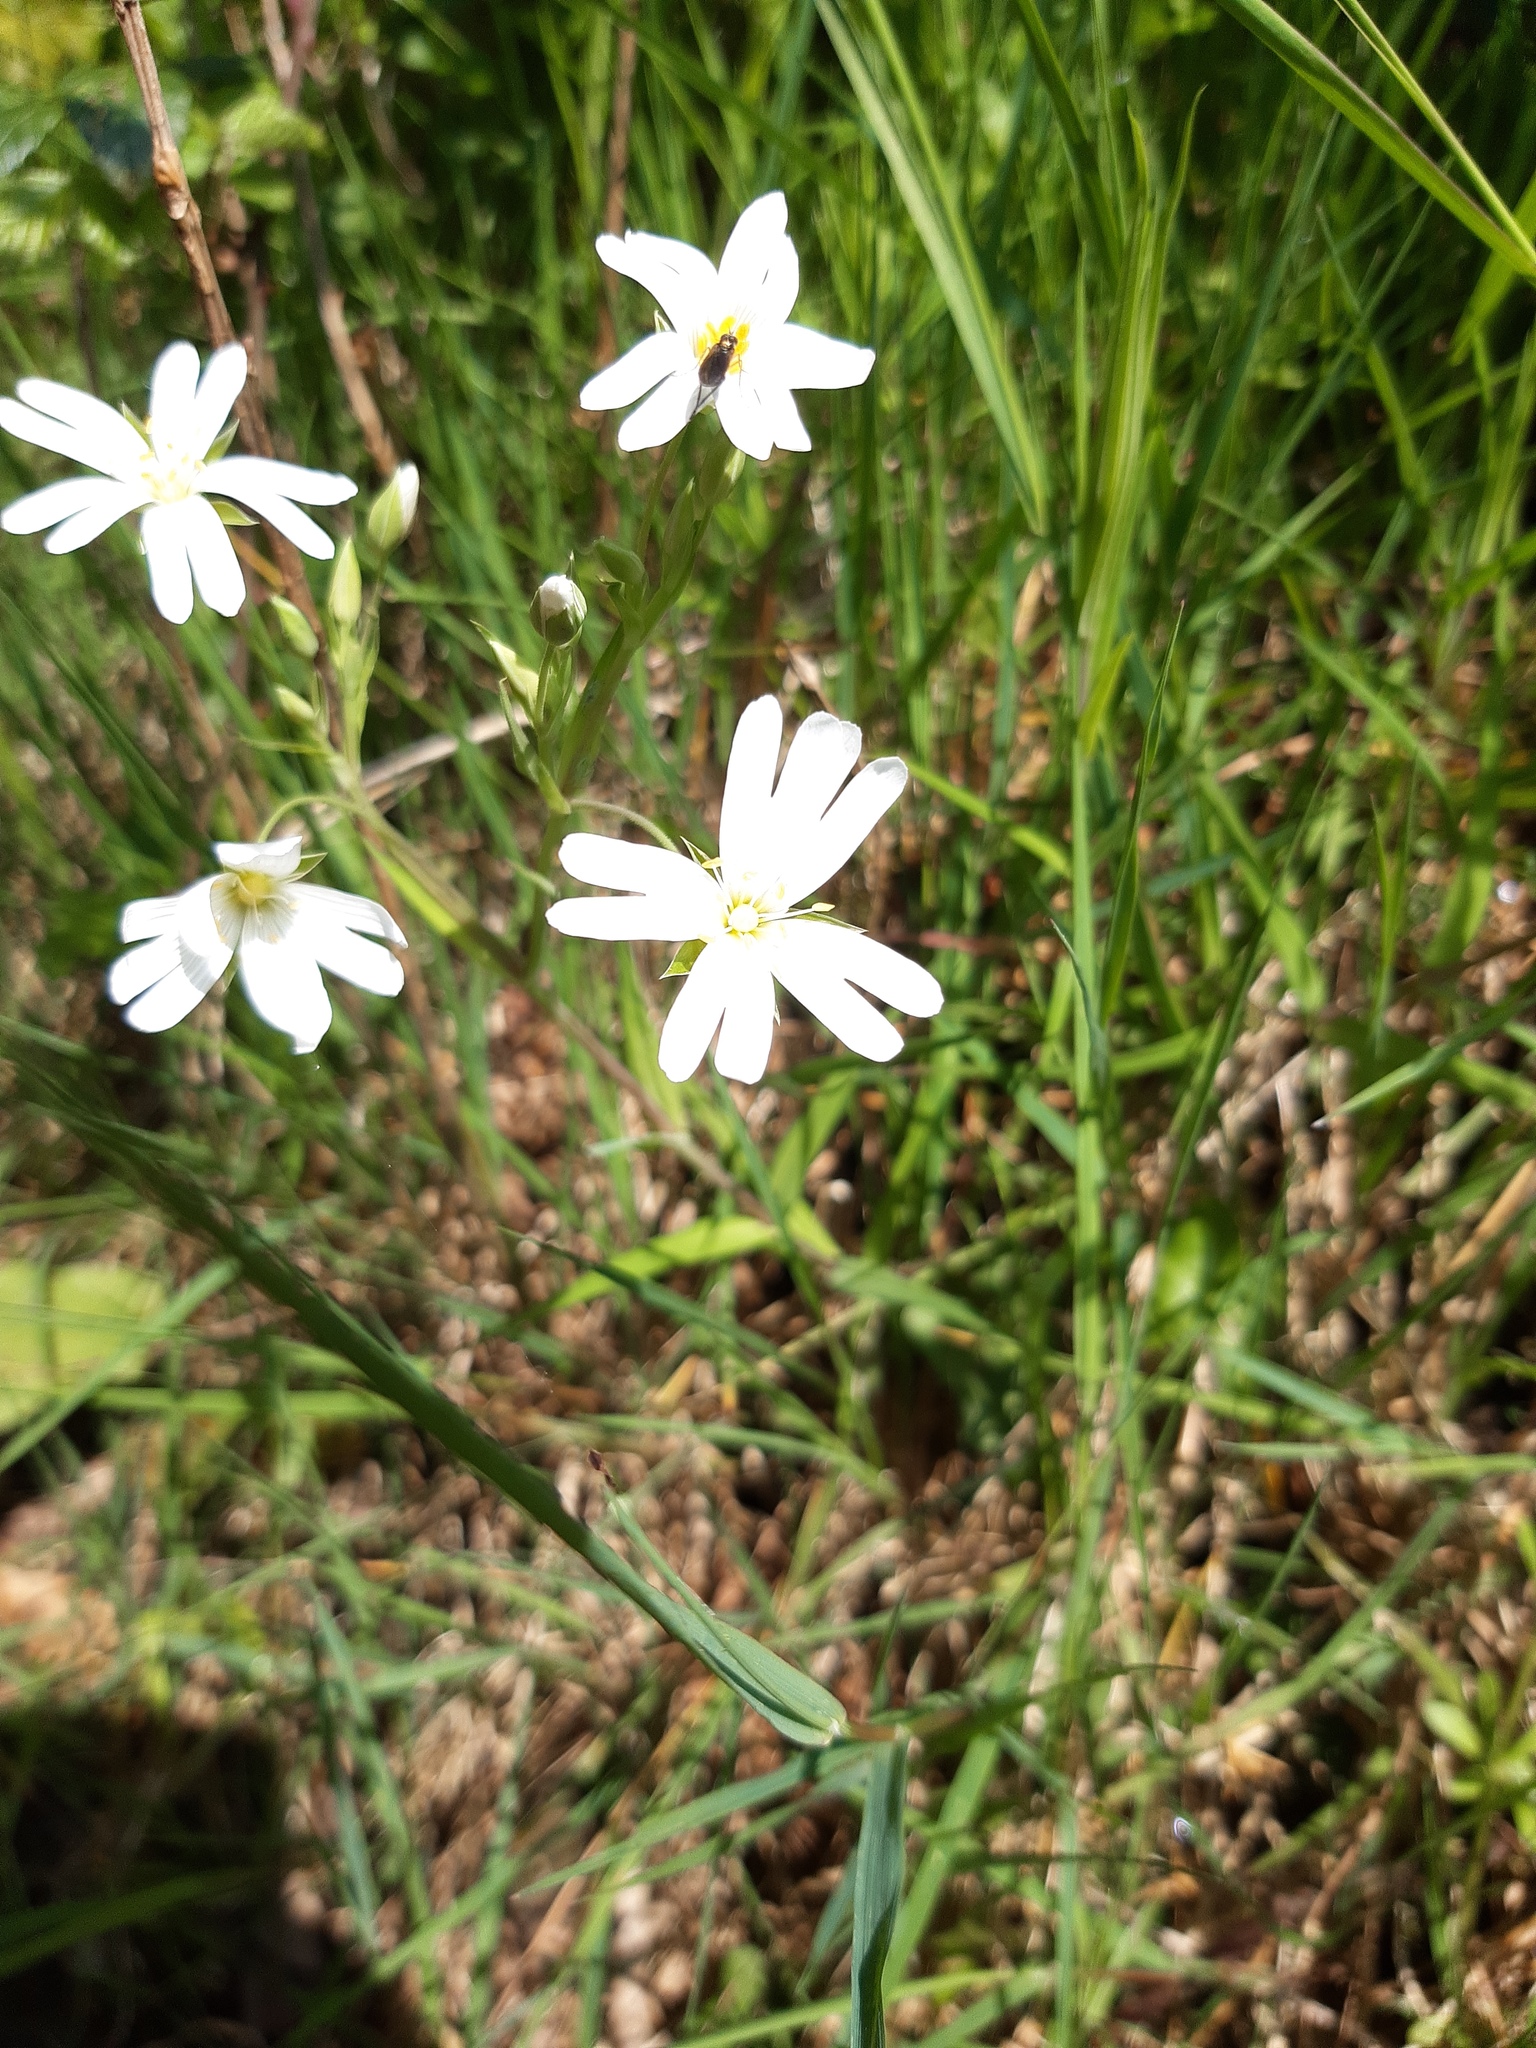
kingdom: Plantae
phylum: Tracheophyta
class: Magnoliopsida
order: Caryophyllales
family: Caryophyllaceae
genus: Rabelera
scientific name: Rabelera holostea
